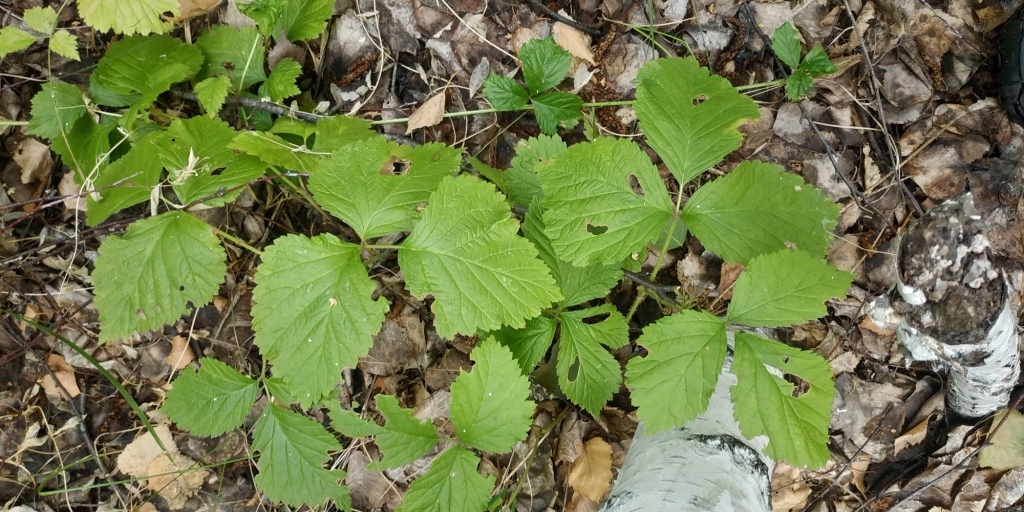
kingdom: Plantae
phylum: Tracheophyta
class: Magnoliopsida
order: Rosales
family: Rosaceae
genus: Rubus
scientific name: Rubus saxatilis
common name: Stone bramble
